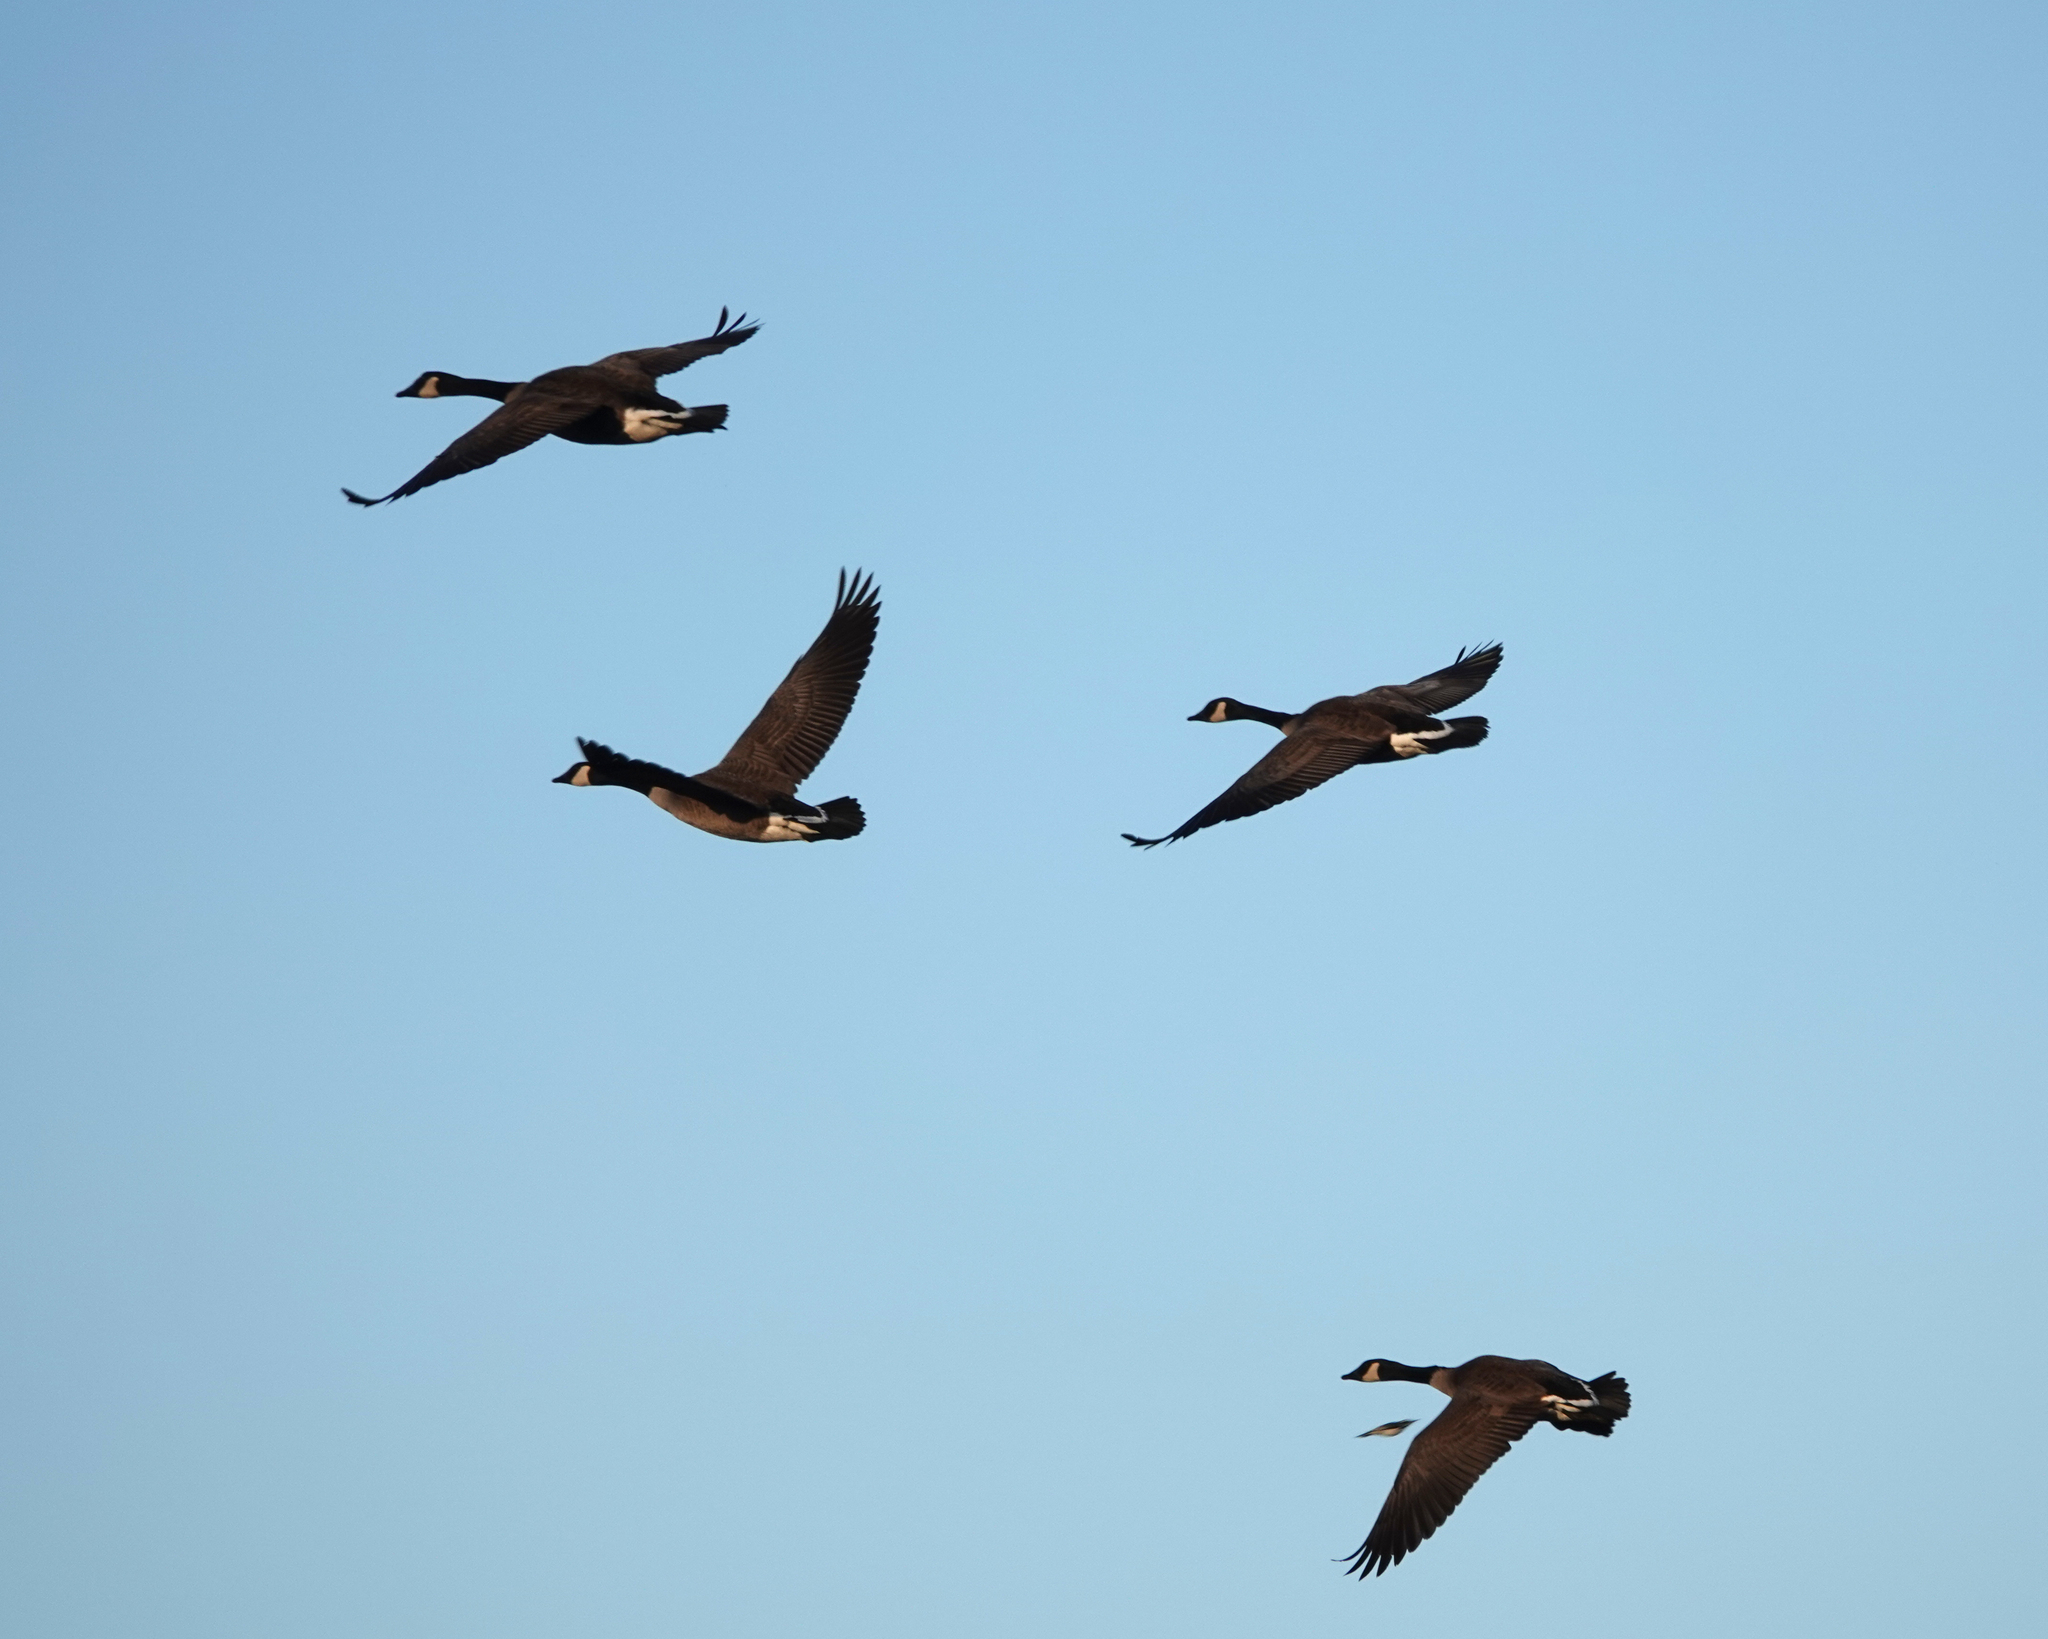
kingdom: Animalia
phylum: Chordata
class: Aves
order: Anseriformes
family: Anatidae
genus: Branta
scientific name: Branta canadensis
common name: Canada goose
